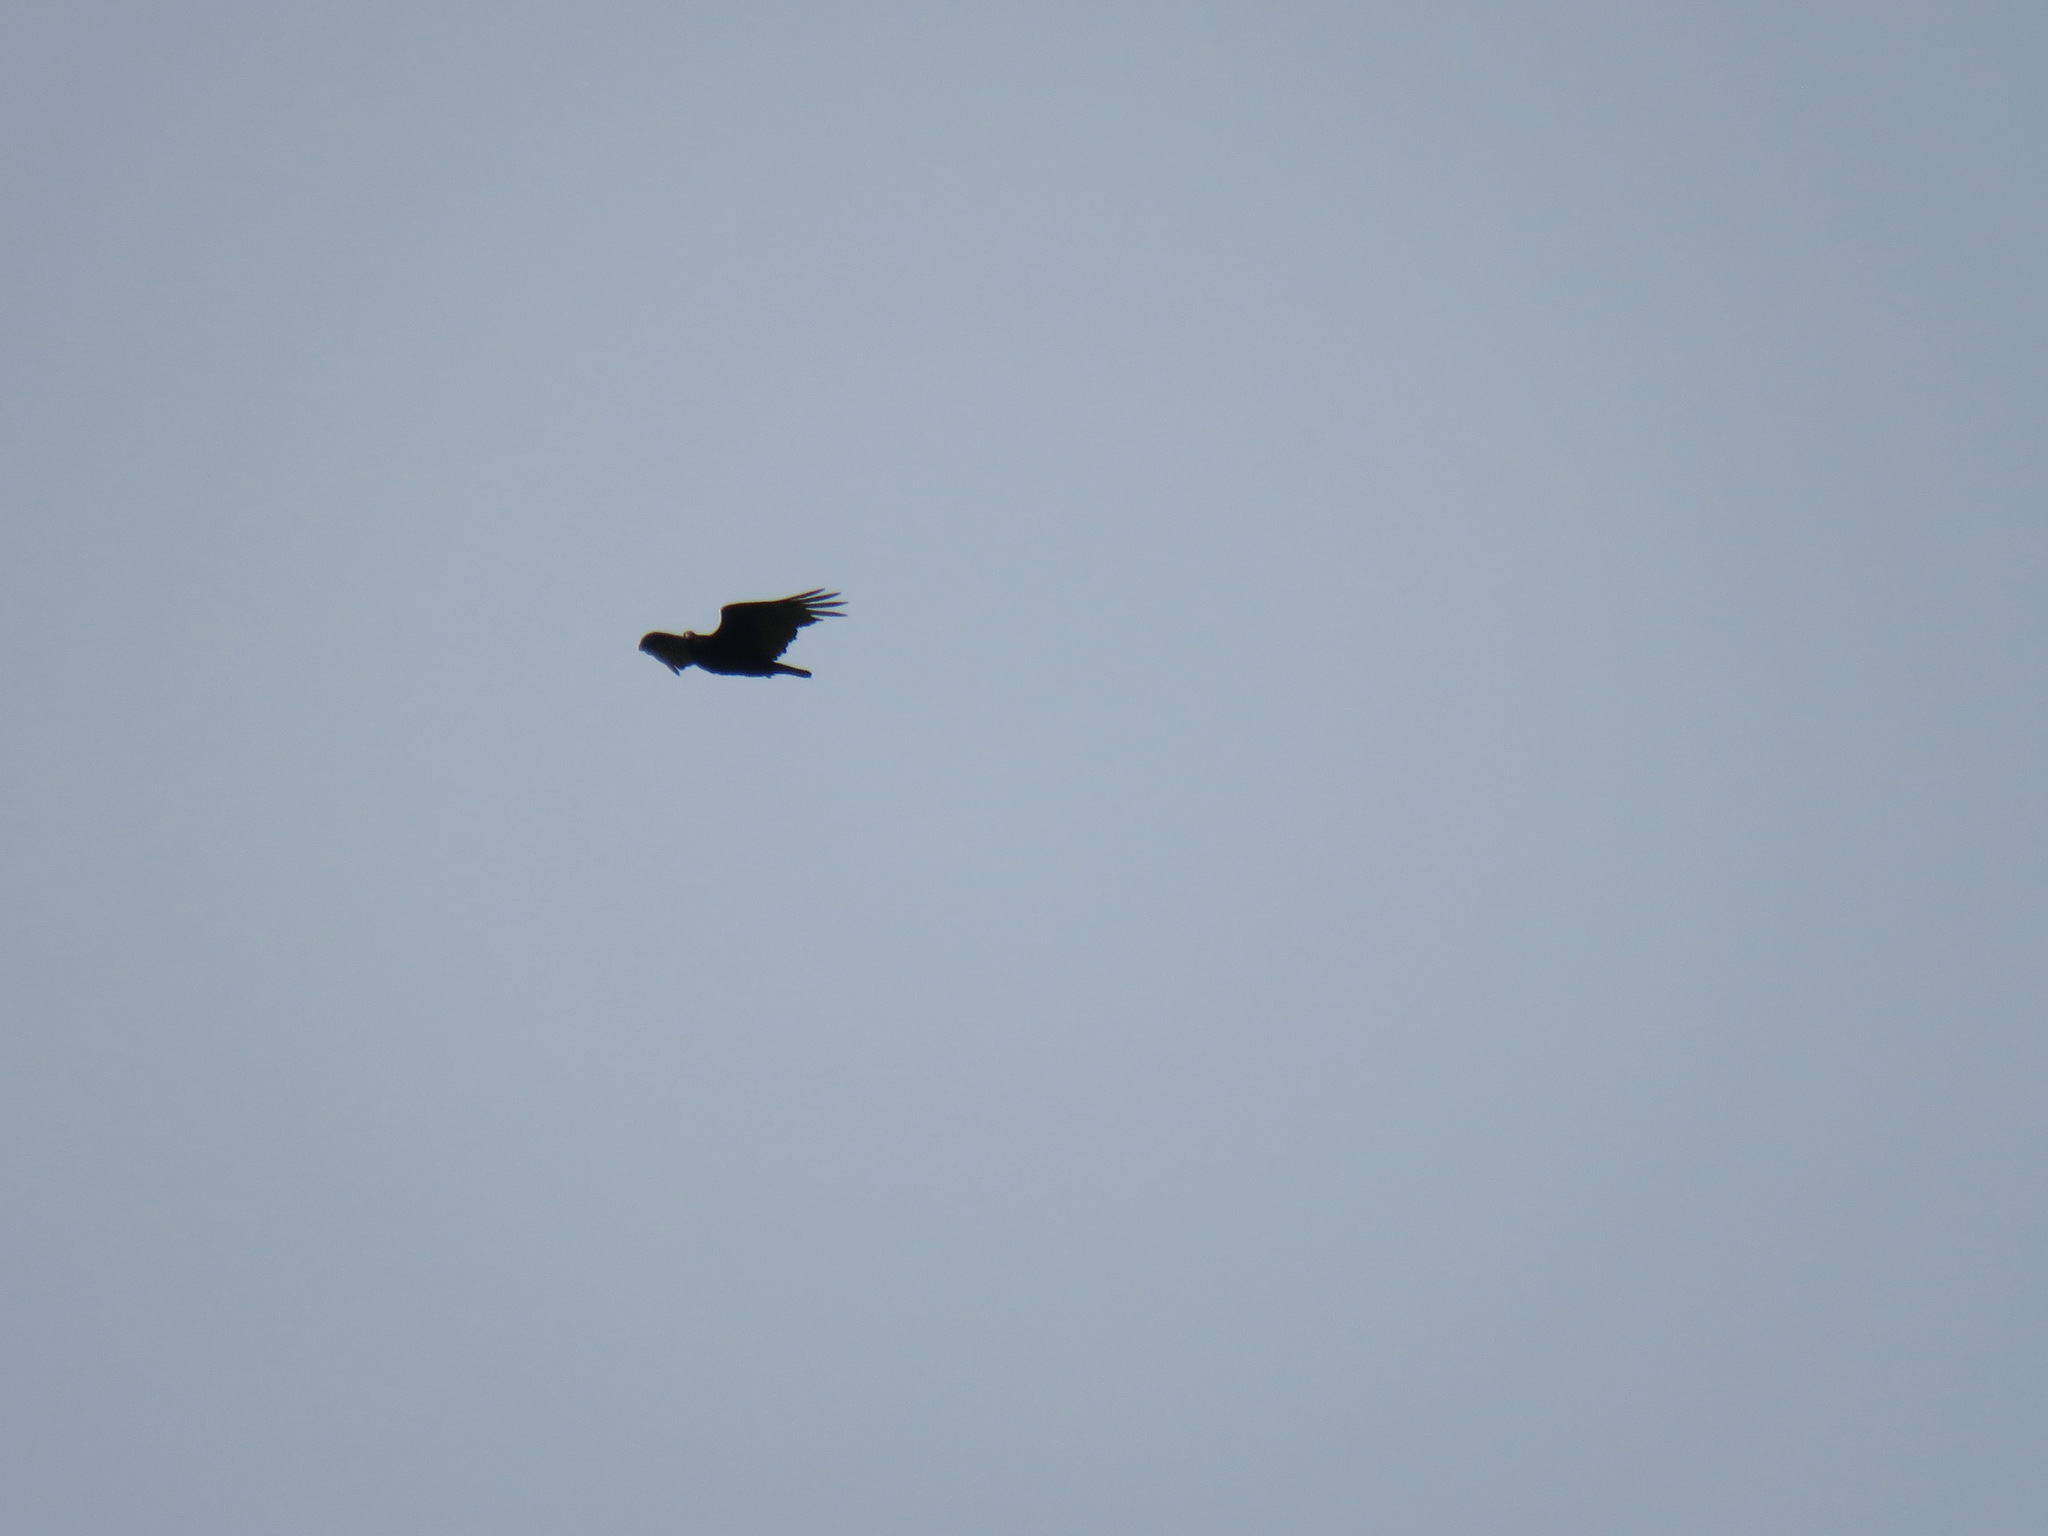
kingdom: Animalia
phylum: Chordata
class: Aves
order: Accipitriformes
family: Cathartidae
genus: Cathartes
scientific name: Cathartes aura
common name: Turkey vulture
